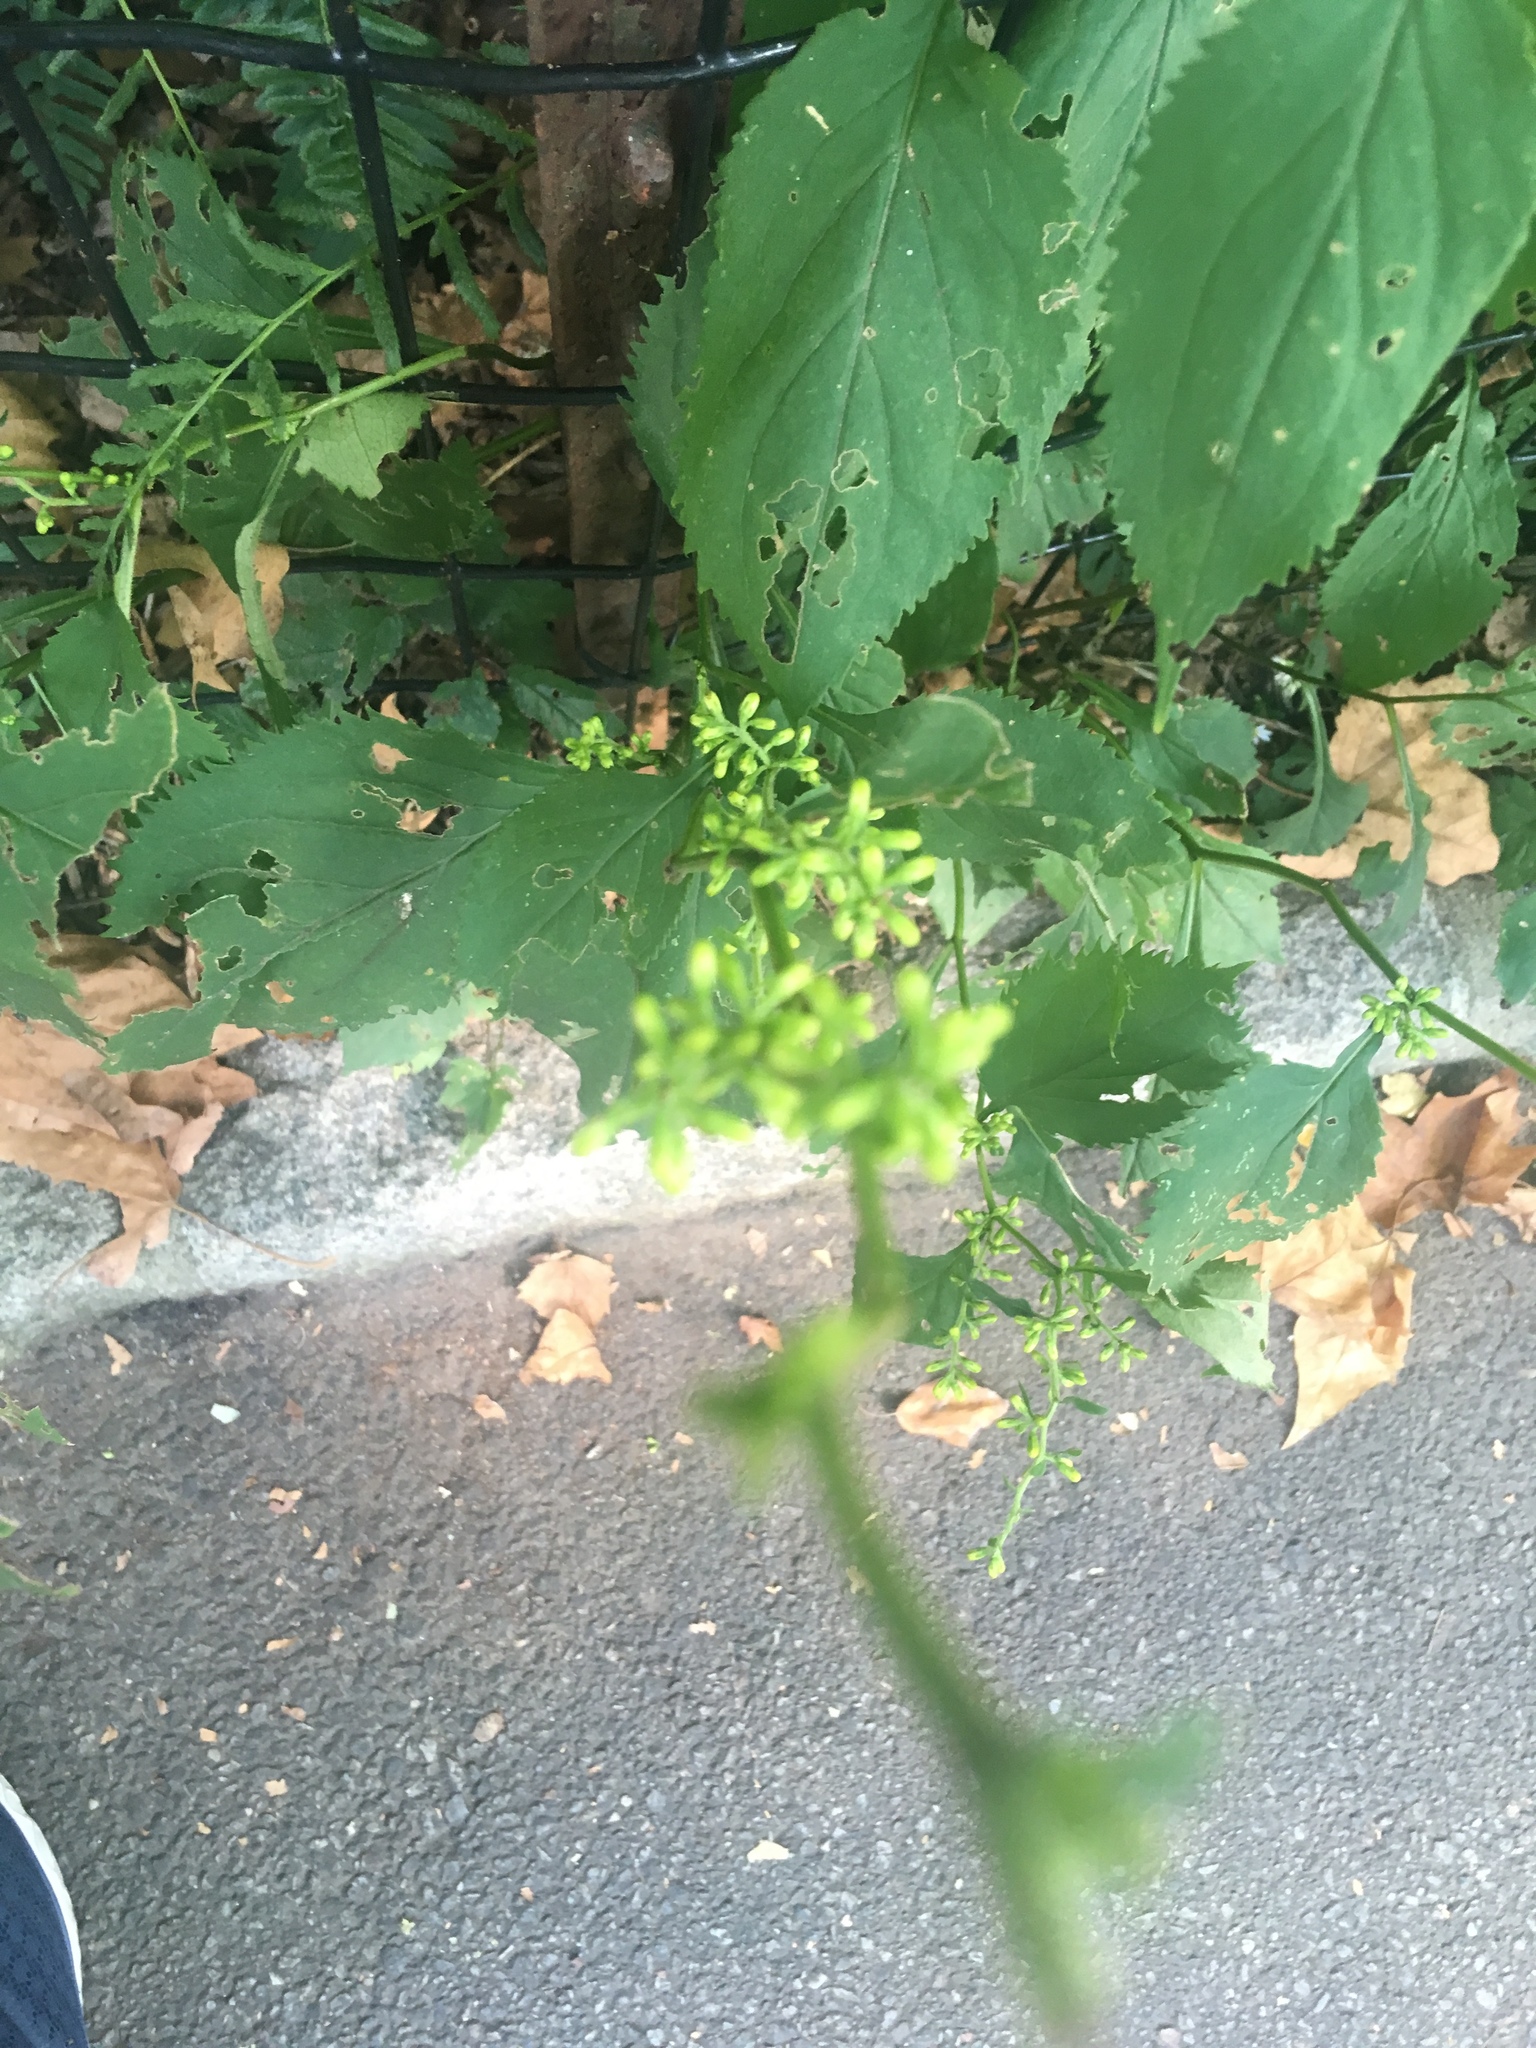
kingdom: Plantae
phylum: Tracheophyta
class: Magnoliopsida
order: Asterales
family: Asteraceae
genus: Solidago
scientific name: Solidago flexicaulis
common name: Zig-zag goldenrod
